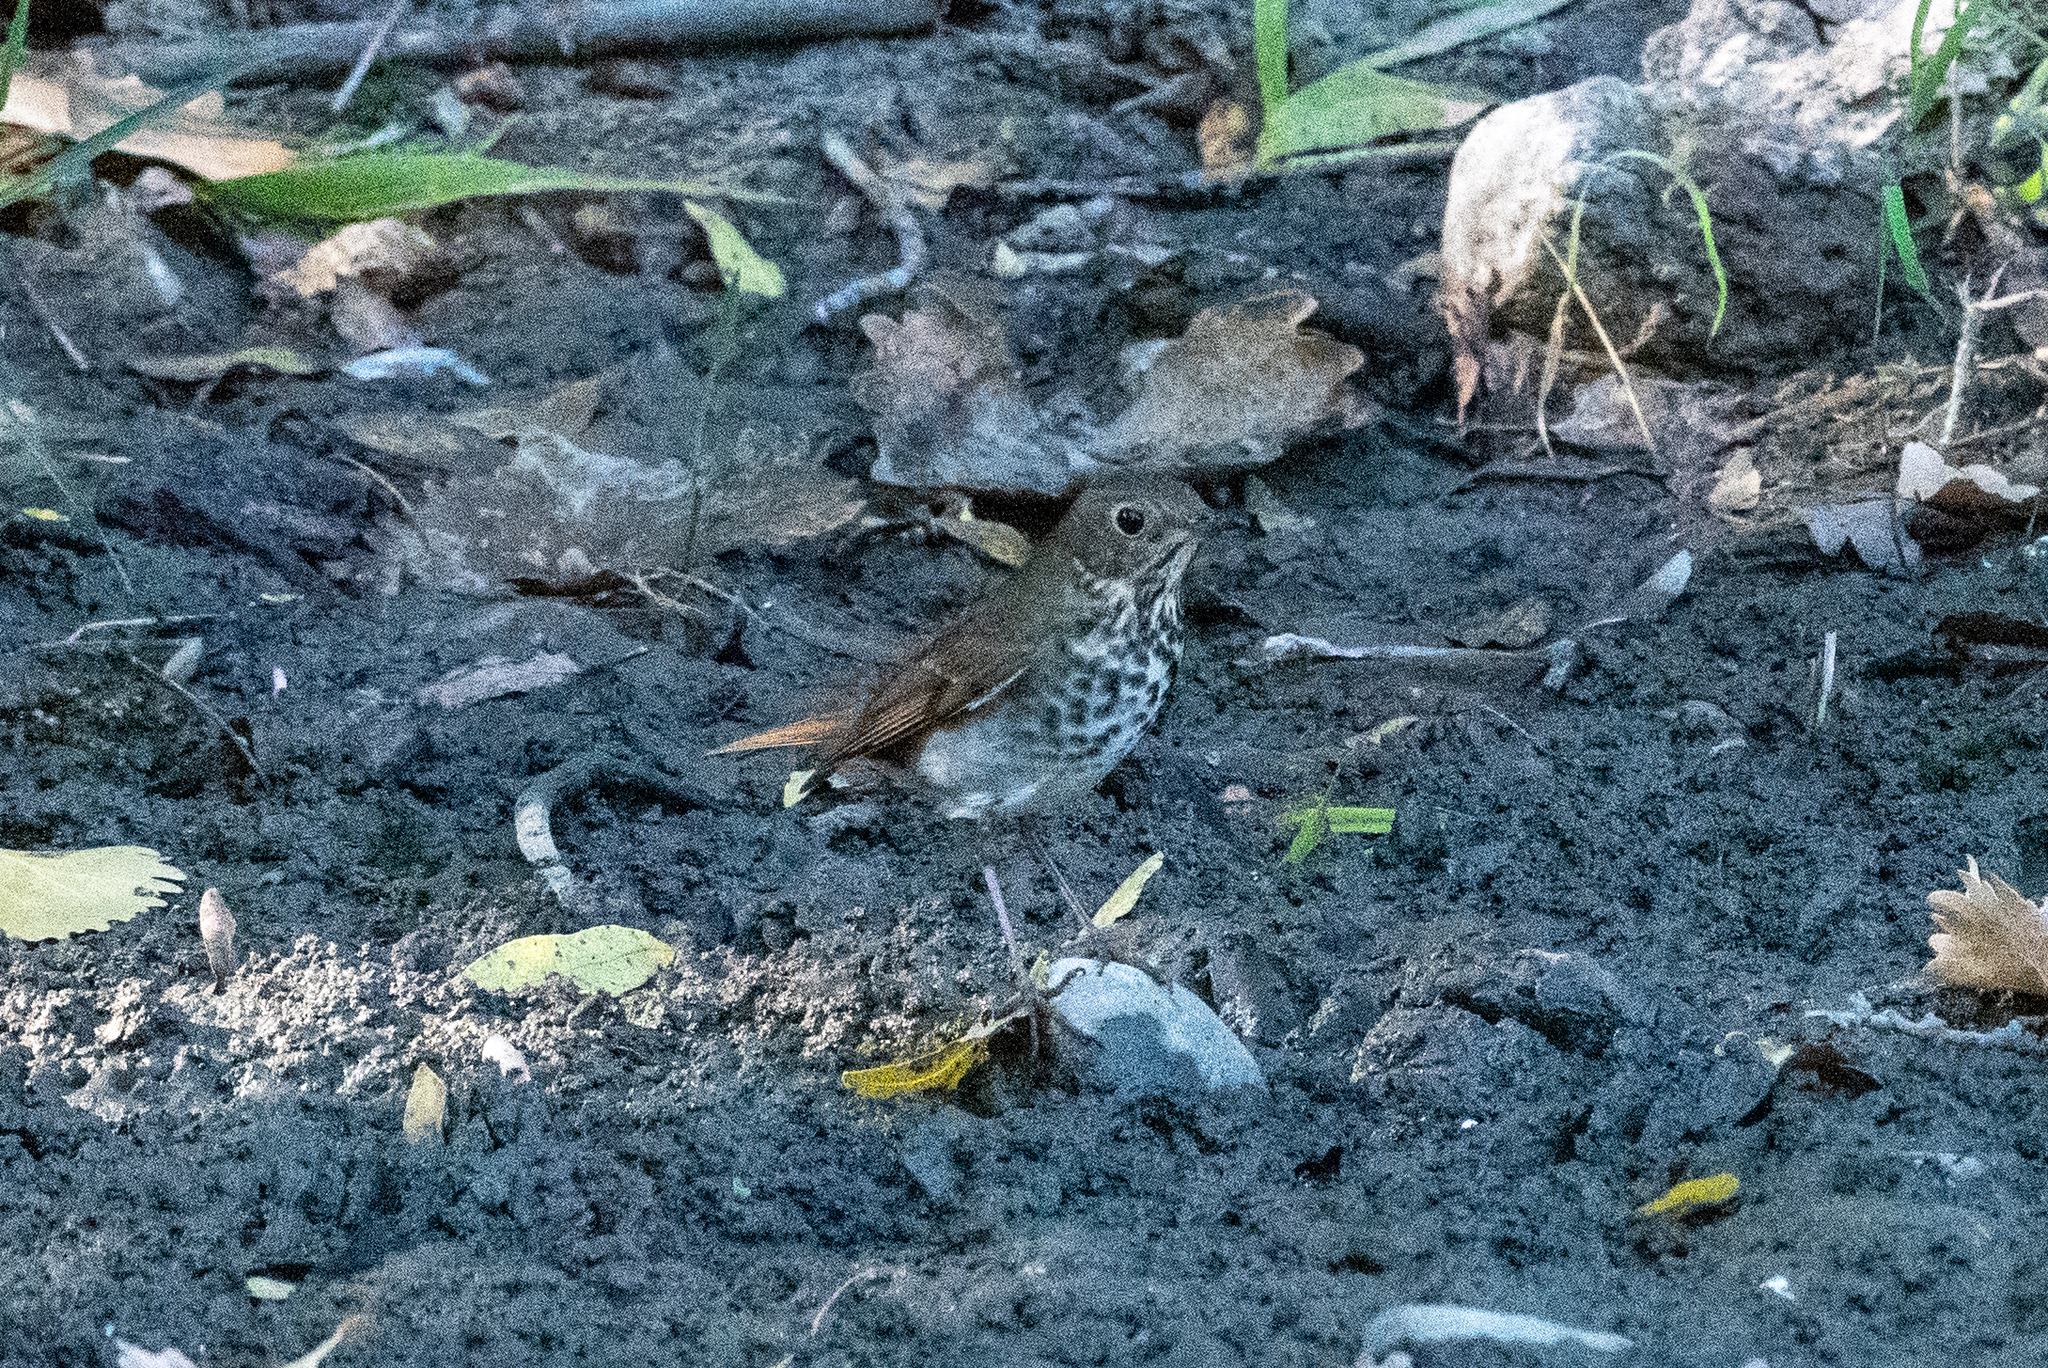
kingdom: Animalia
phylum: Chordata
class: Aves
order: Passeriformes
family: Turdidae
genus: Catharus
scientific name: Catharus guttatus
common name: Hermit thrush
